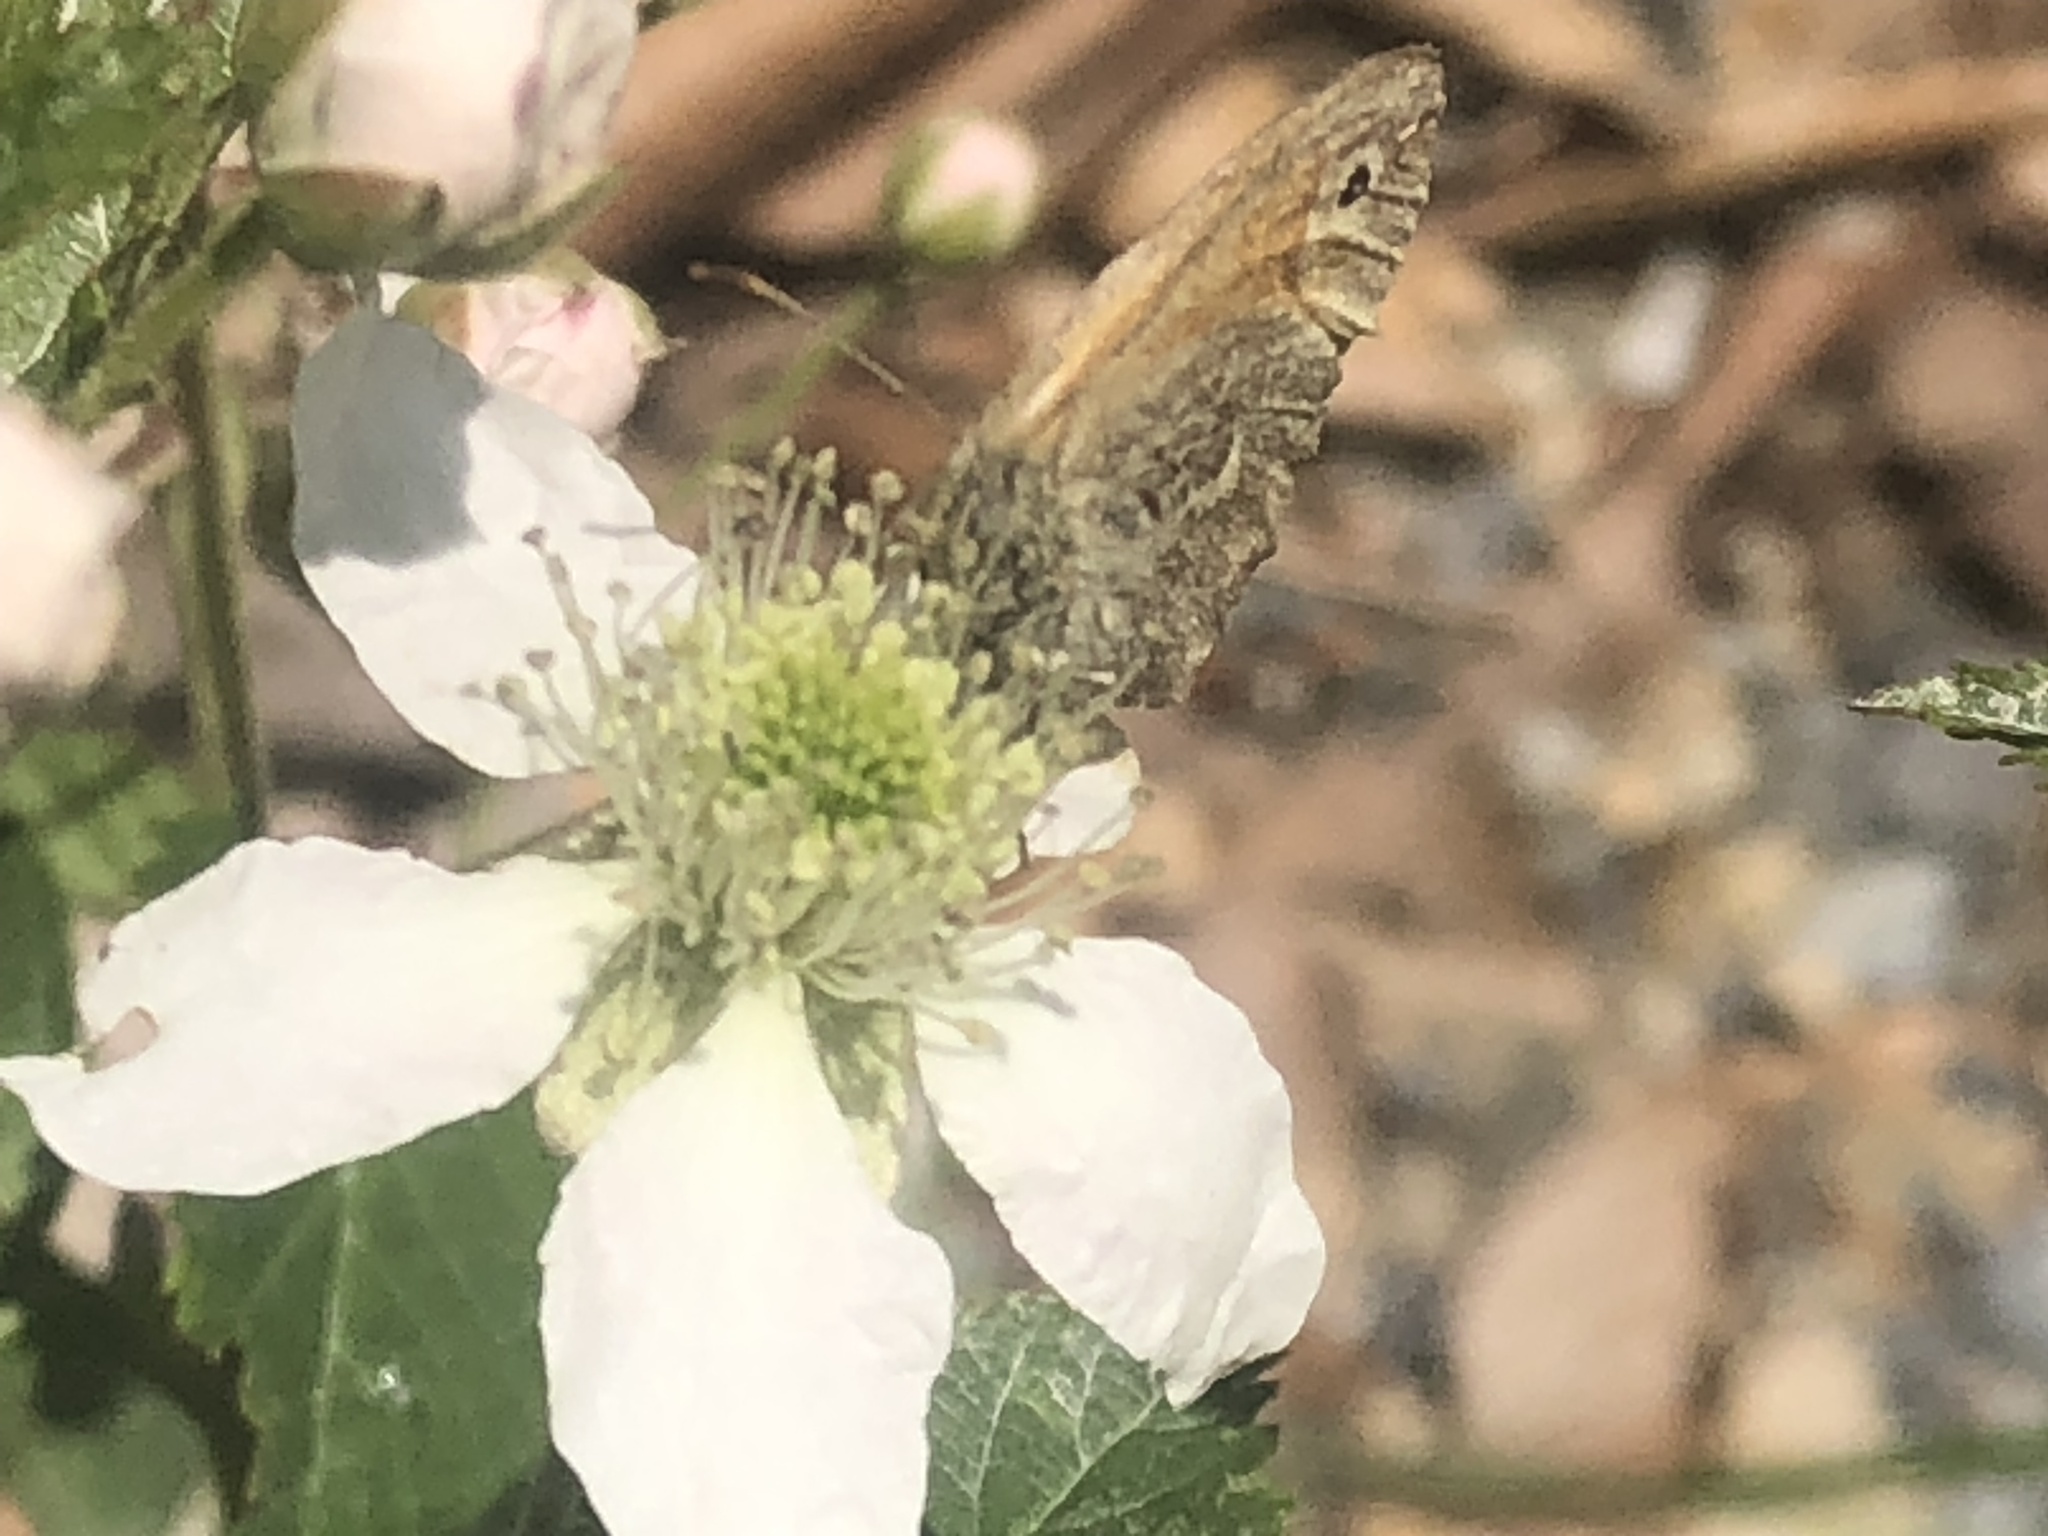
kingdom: Animalia
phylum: Arthropoda
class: Insecta
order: Lepidoptera
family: Nymphalidae
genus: Coenonympha
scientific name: Coenonympha california
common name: Common ringlet
